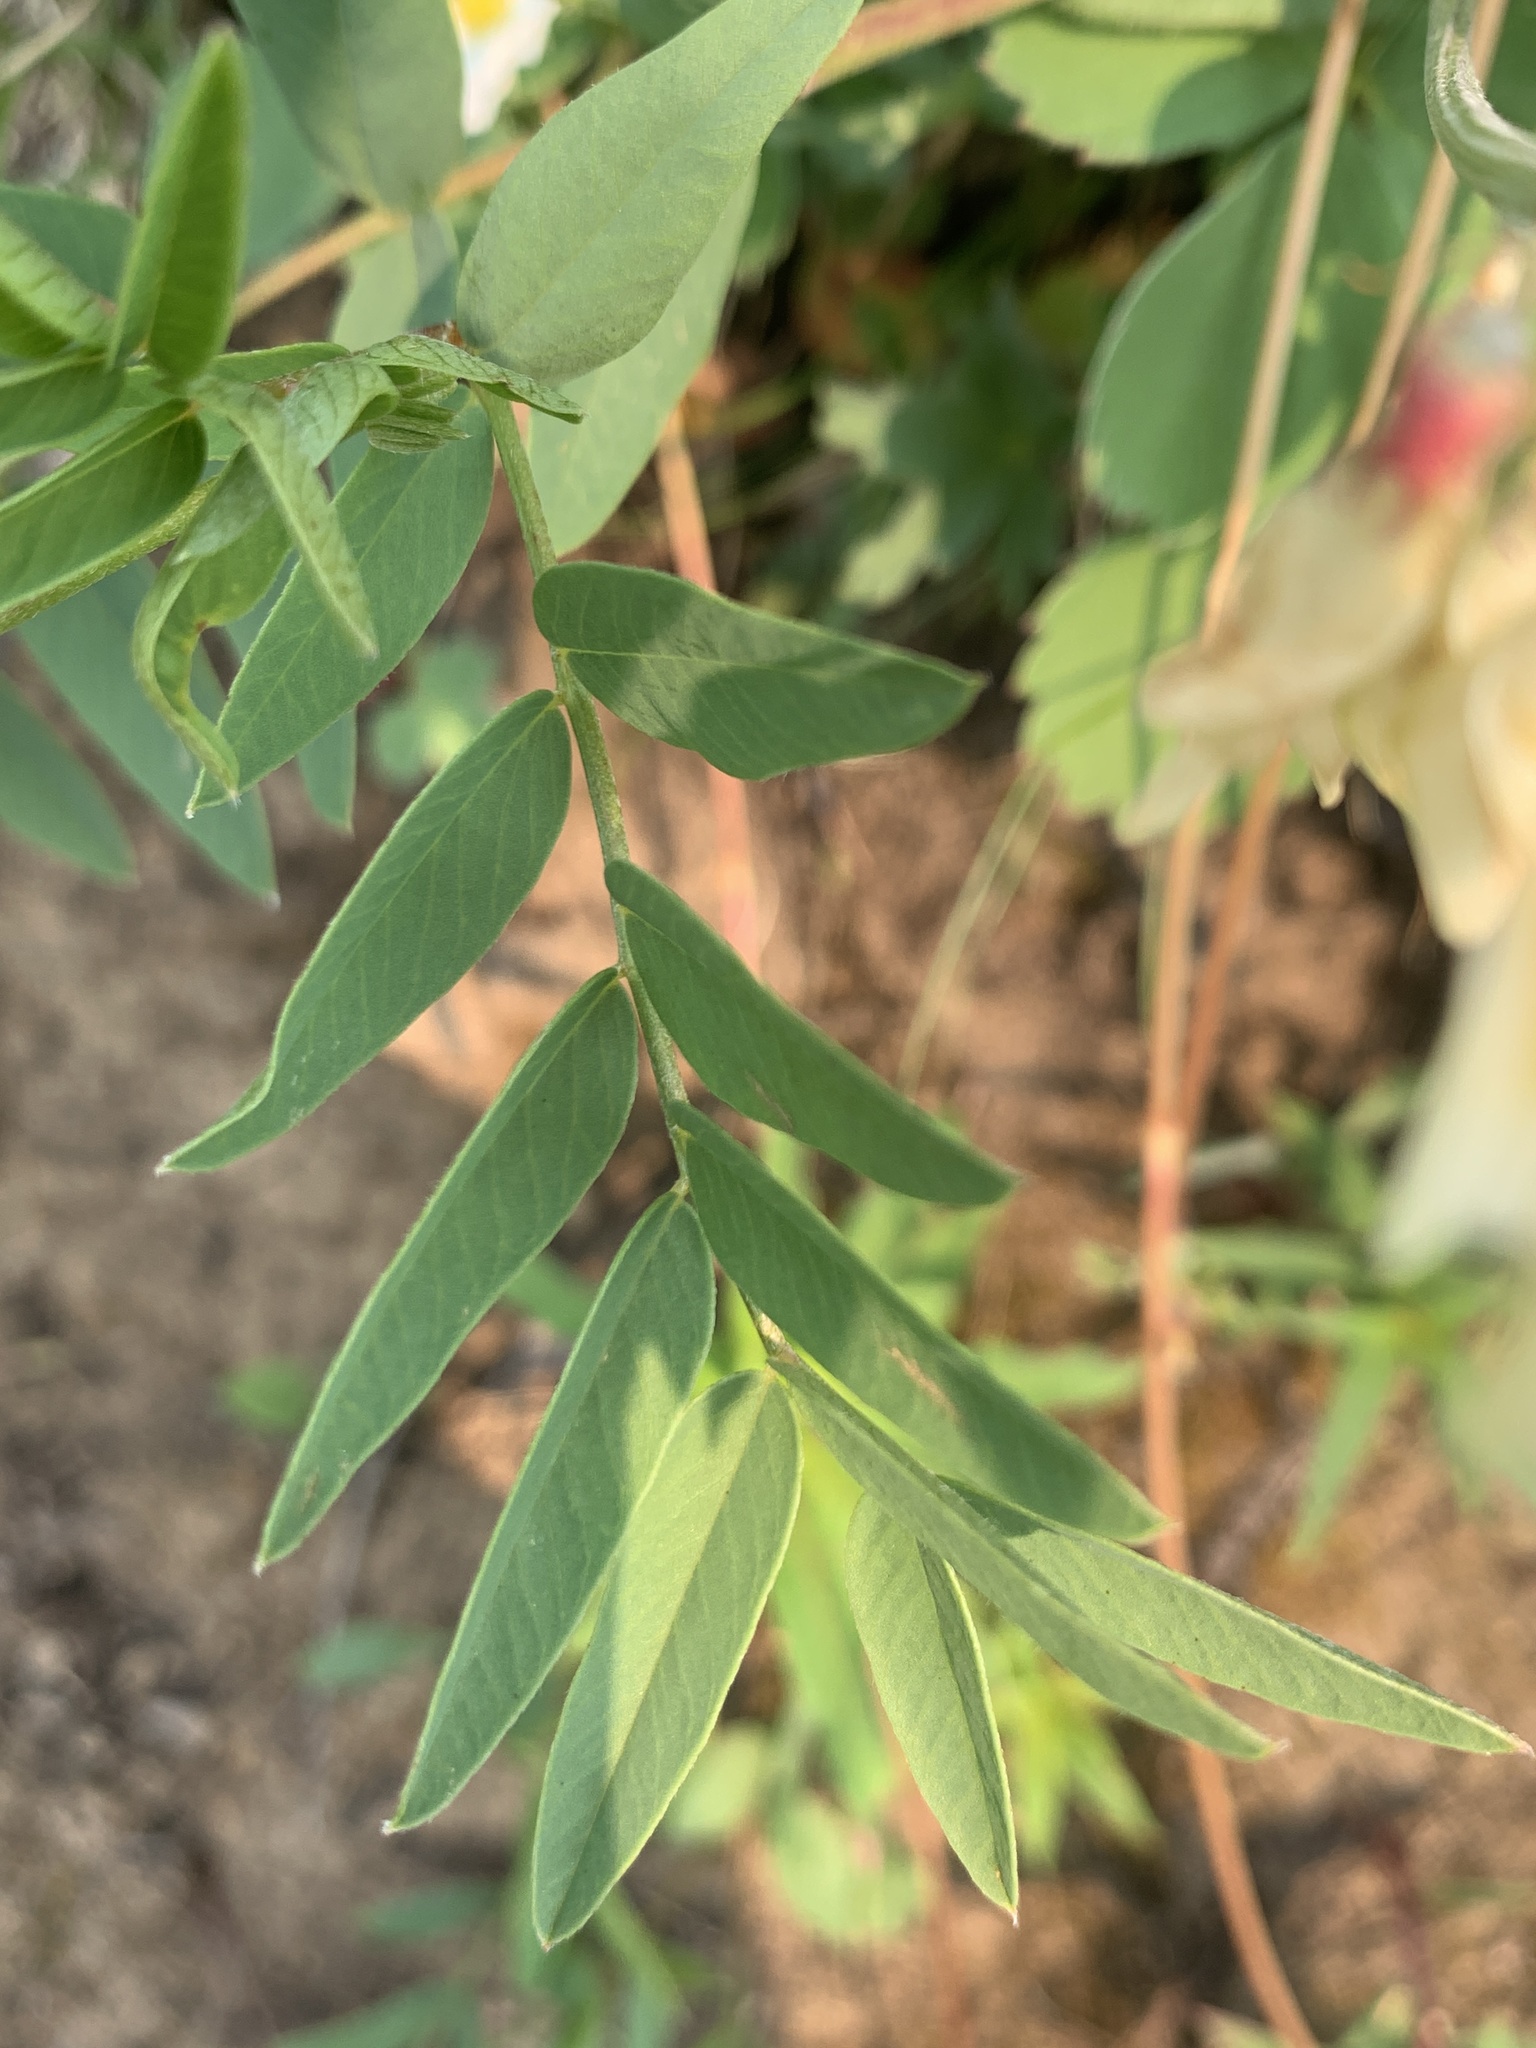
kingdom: Plantae
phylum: Tracheophyta
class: Magnoliopsida
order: Fabales
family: Fabaceae
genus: Hedysarum
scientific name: Hedysarum sulphurescens
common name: Sulphur hedysarum
